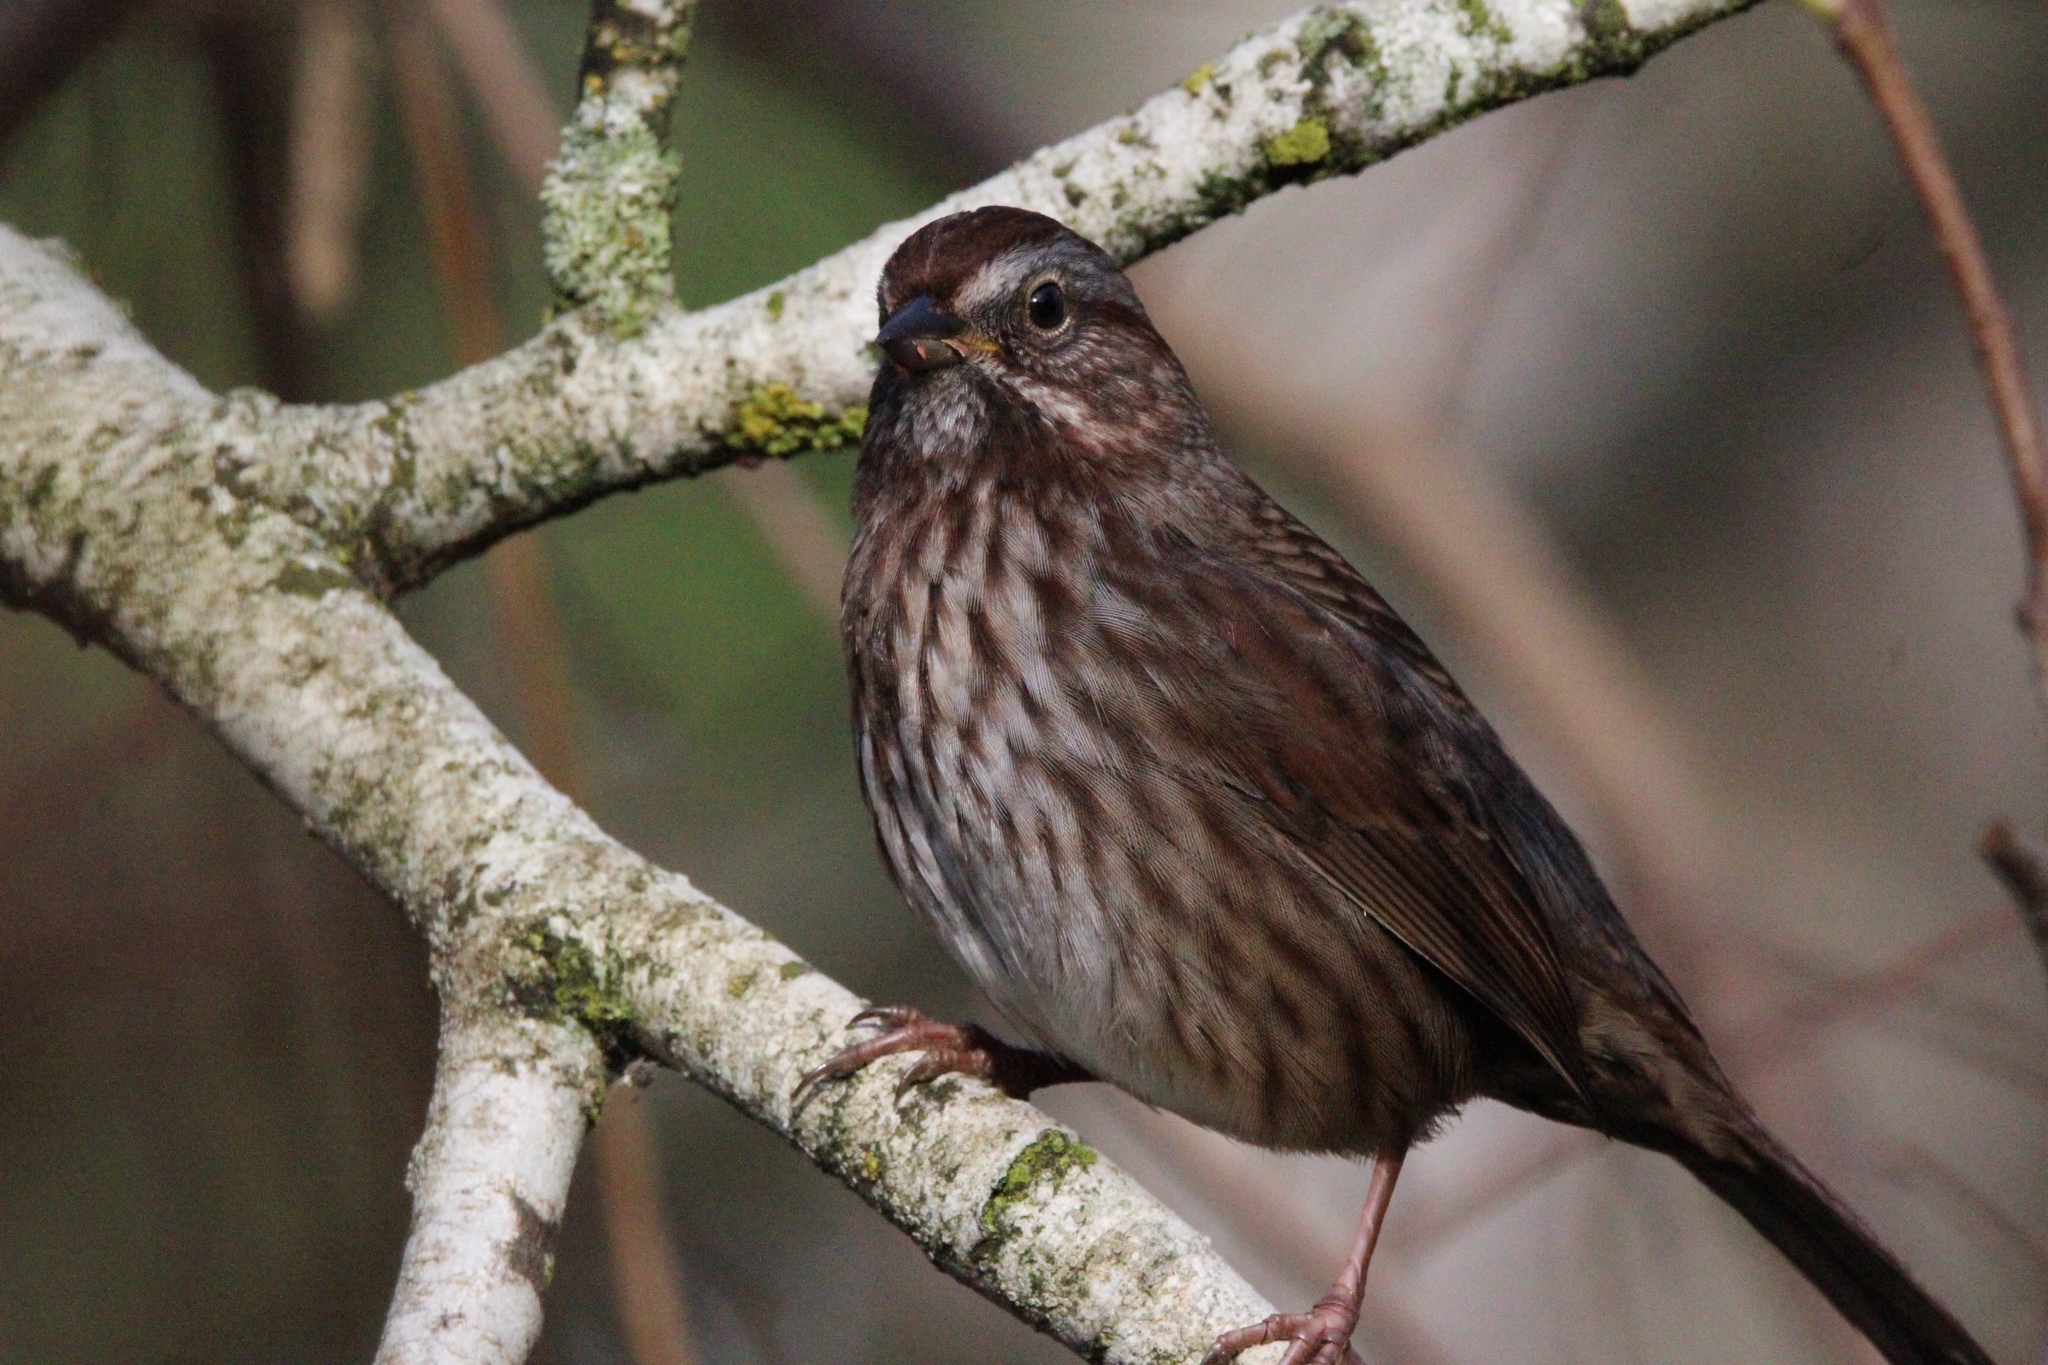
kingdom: Animalia
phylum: Chordata
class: Aves
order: Passeriformes
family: Passerellidae
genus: Melospiza
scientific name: Melospiza melodia
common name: Song sparrow
